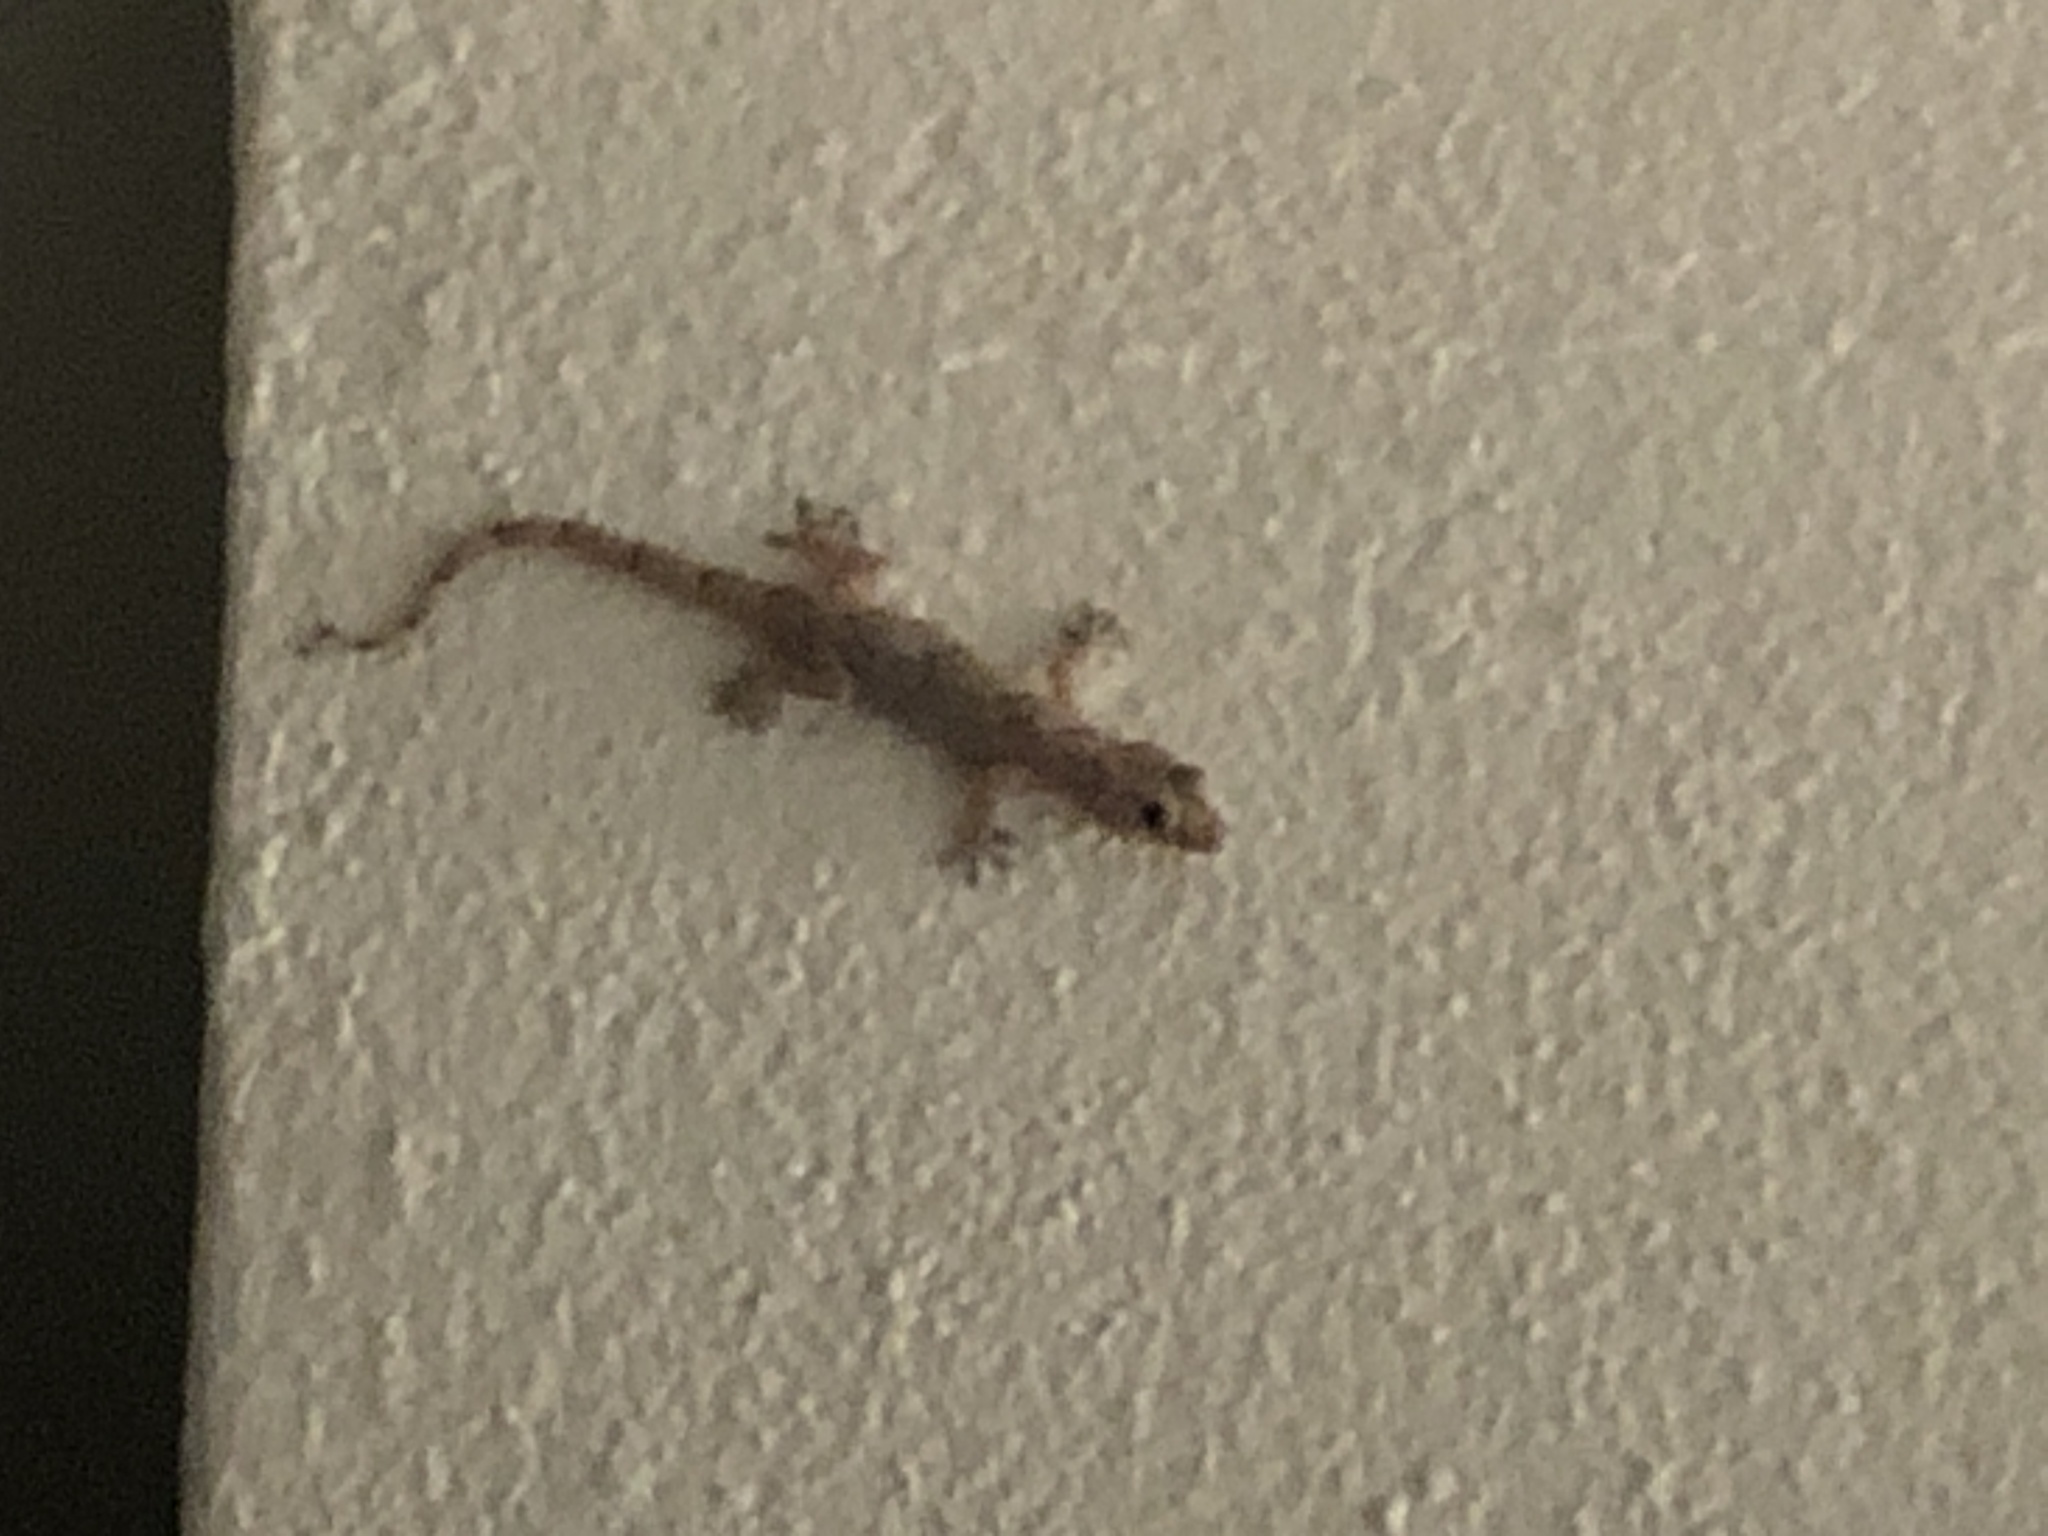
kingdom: Animalia
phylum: Chordata
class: Squamata
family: Gekkonidae
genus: Hemidactylus
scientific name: Hemidactylus mabouia
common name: House gecko
